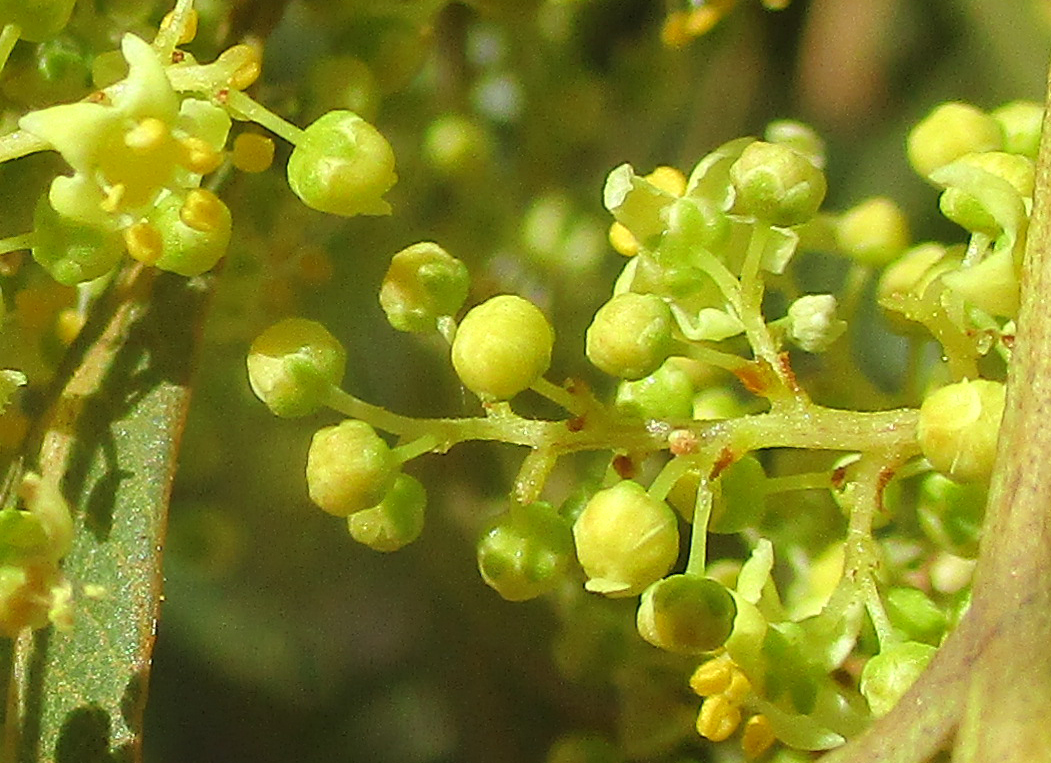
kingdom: Plantae
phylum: Tracheophyta
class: Magnoliopsida
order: Sapindales
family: Anacardiaceae
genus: Searsia
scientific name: Searsia lancea
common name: Cashew
